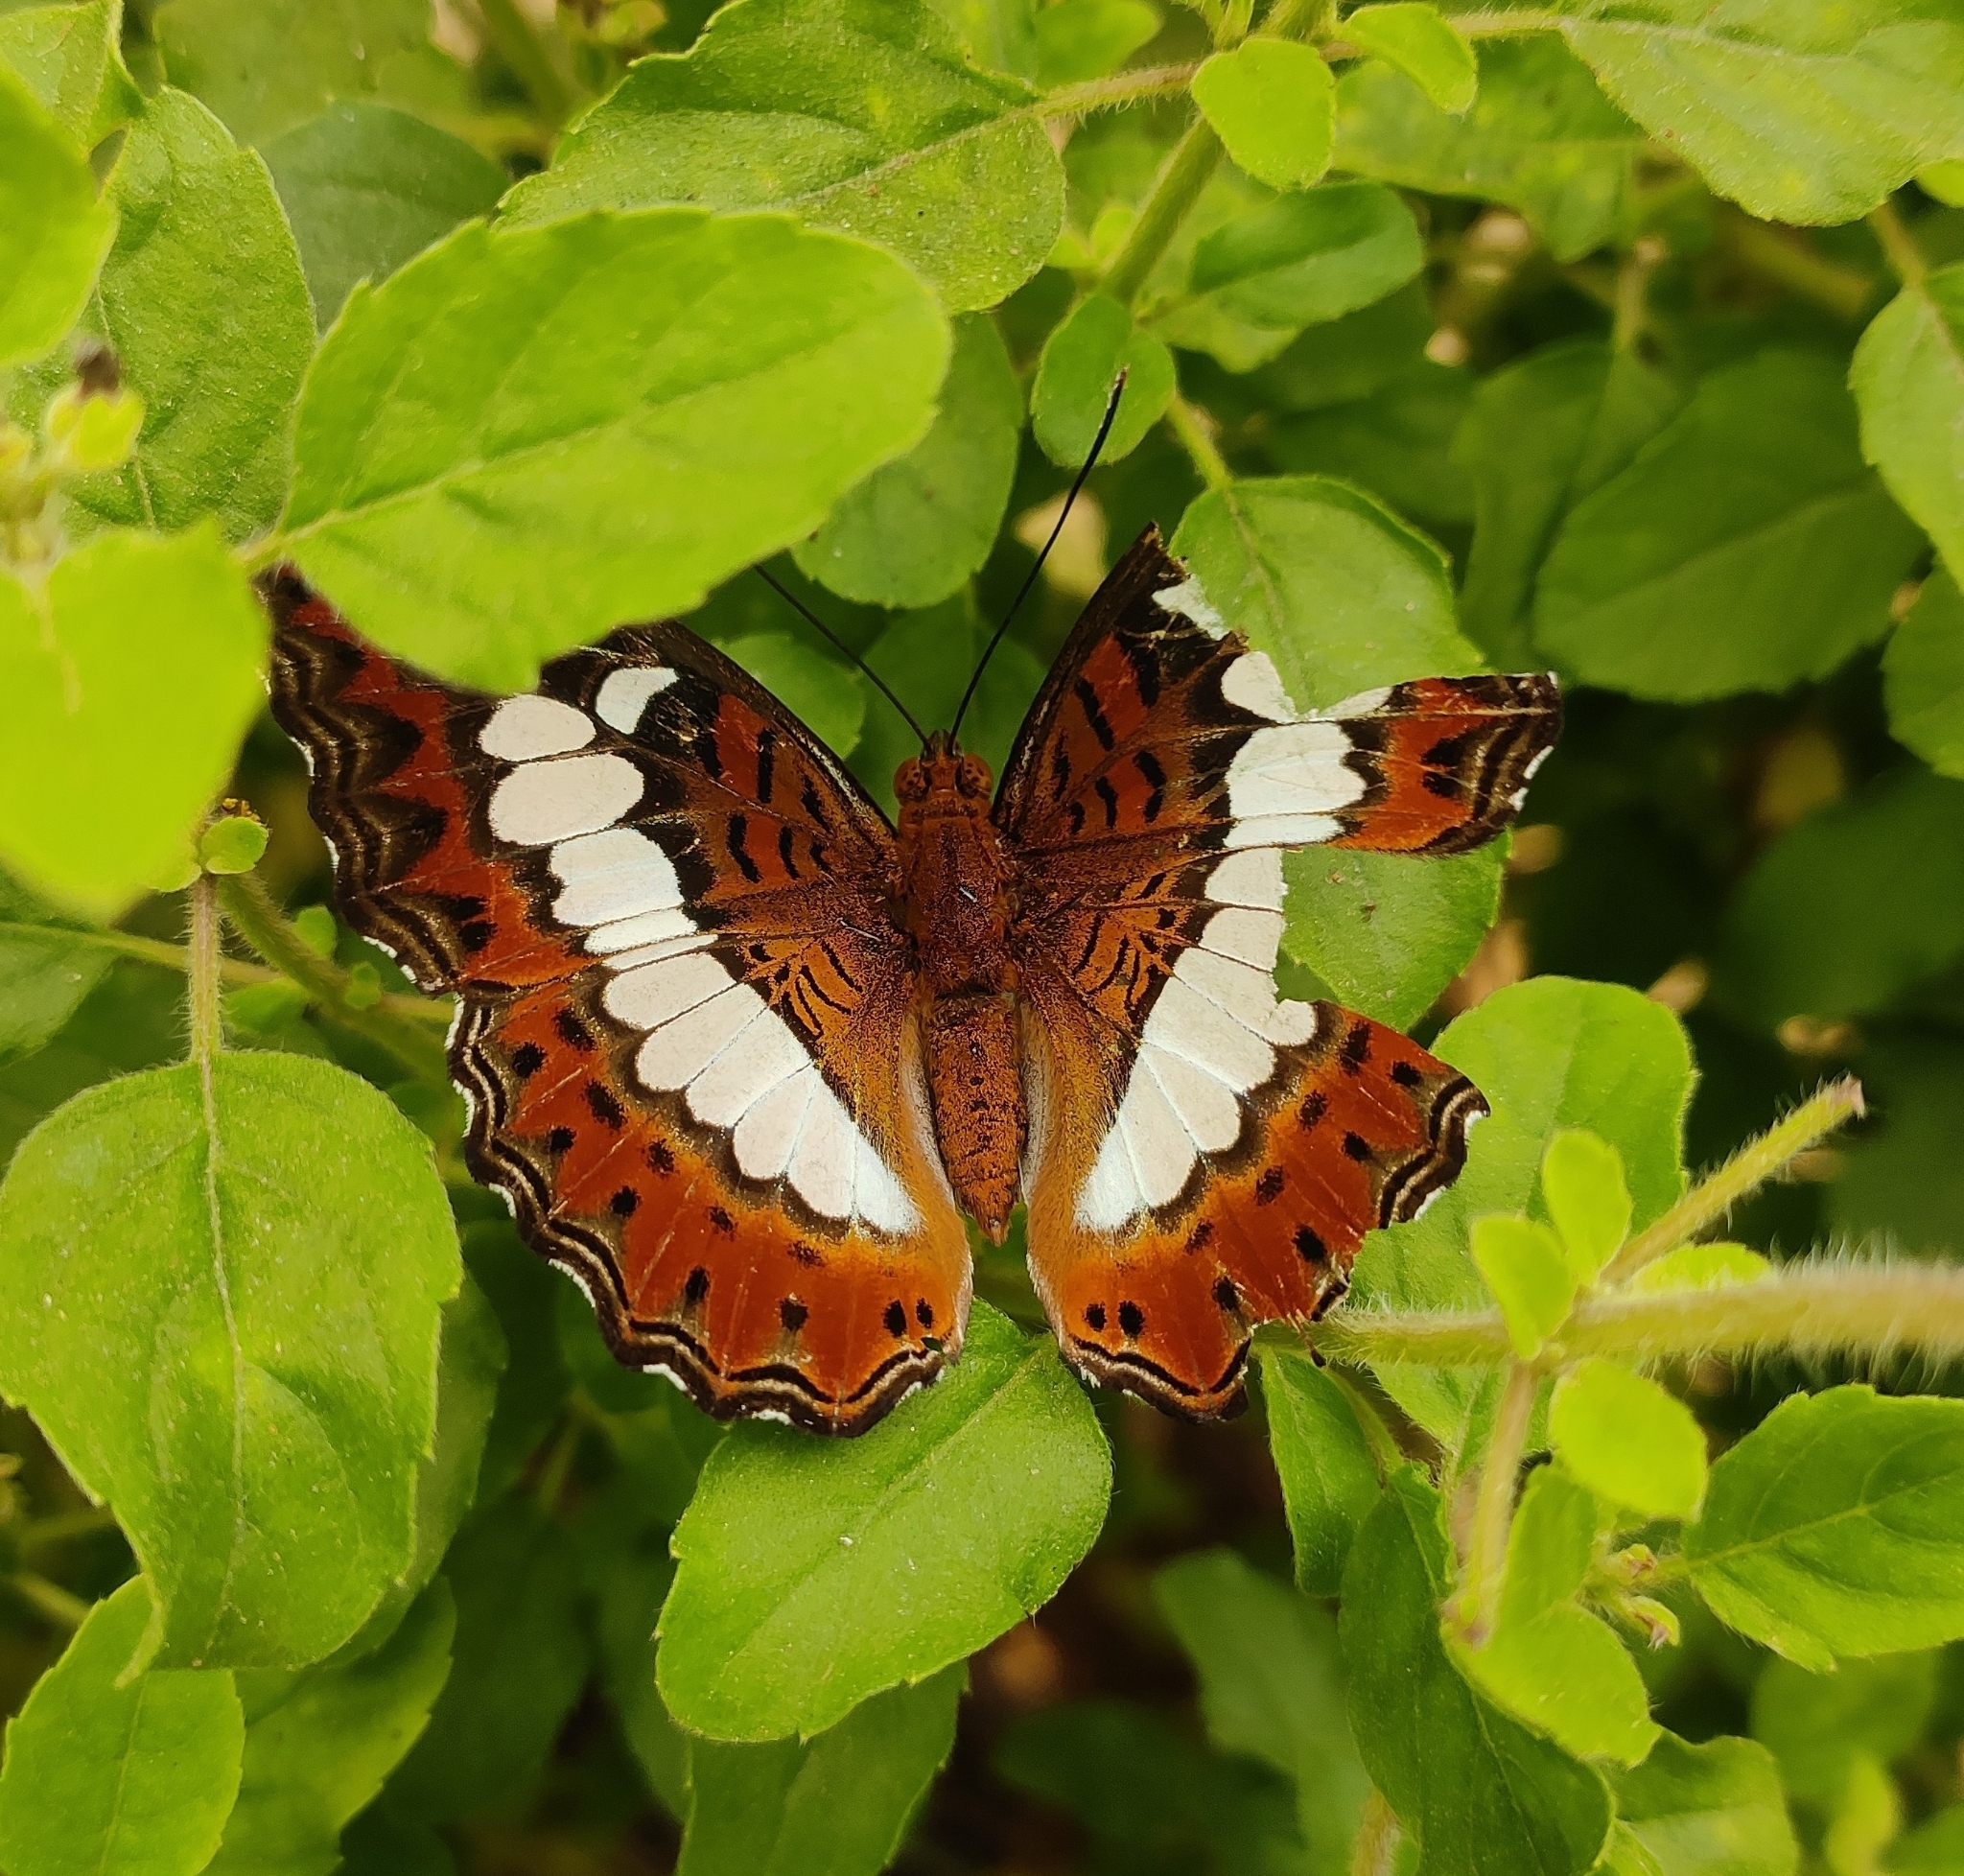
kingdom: Animalia
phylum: Arthropoda
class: Insecta
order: Lepidoptera
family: Nymphalidae
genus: Limenitis
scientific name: Limenitis Moduza procris
